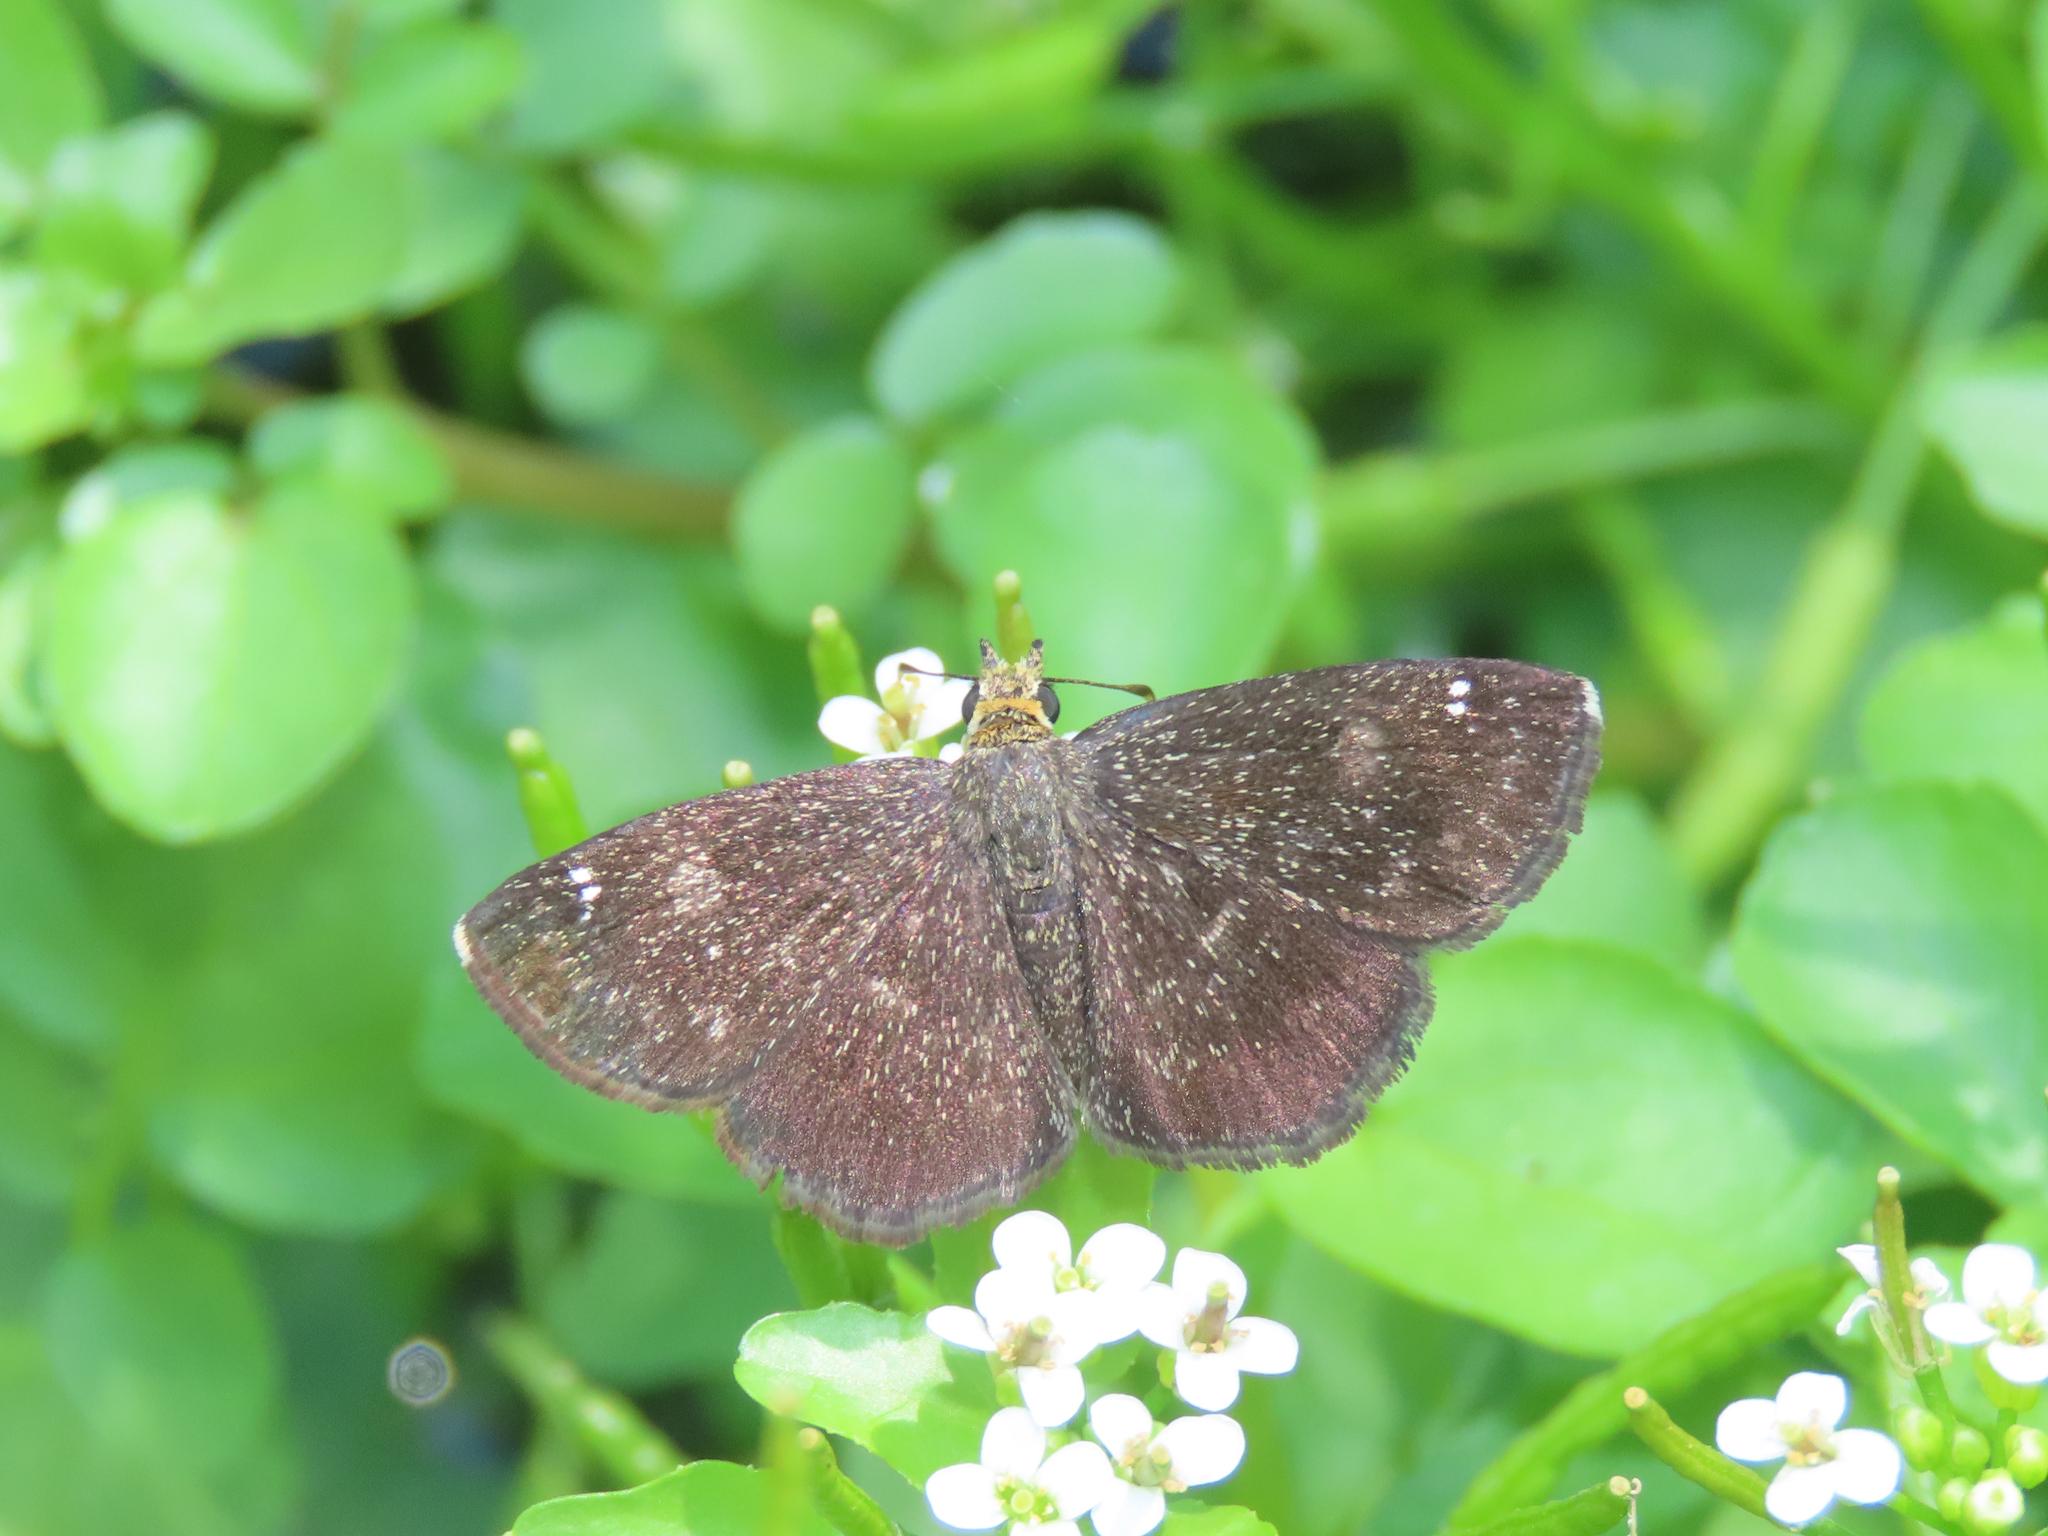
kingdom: Animalia
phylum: Arthropoda
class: Insecta
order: Lepidoptera
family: Hesperiidae
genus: Staphylus
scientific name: Staphylus ceos
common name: Golden-headed scallopwing
